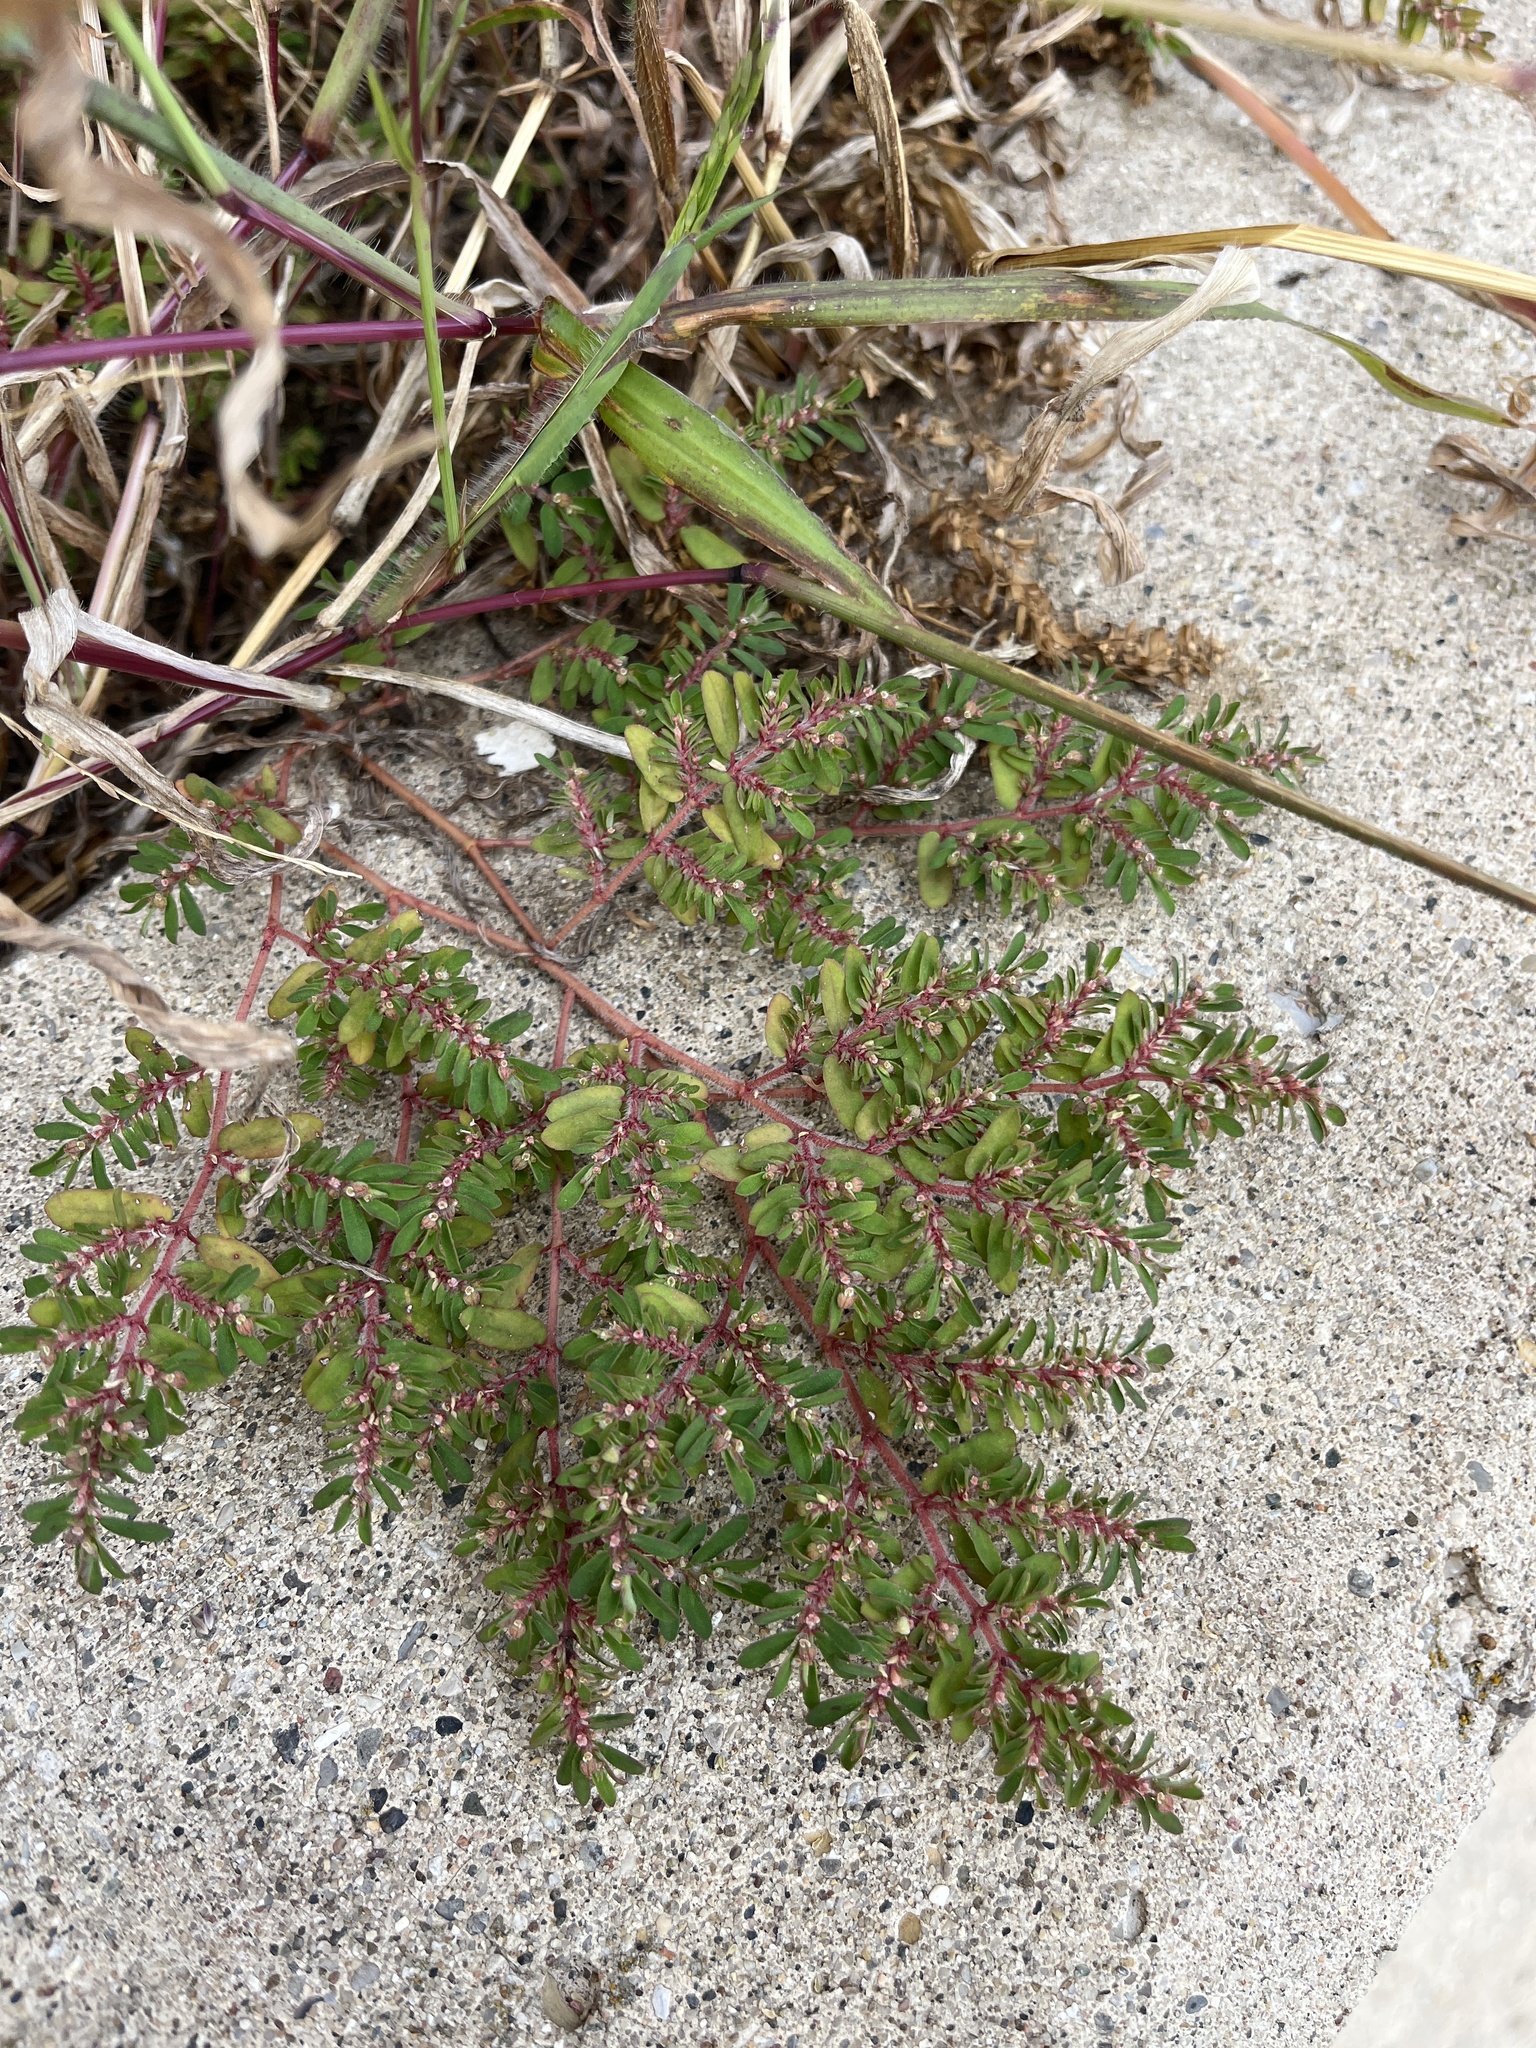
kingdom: Plantae
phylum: Tracheophyta
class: Magnoliopsida
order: Malpighiales
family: Euphorbiaceae
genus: Euphorbia
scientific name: Euphorbia maculata
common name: Spotted spurge
